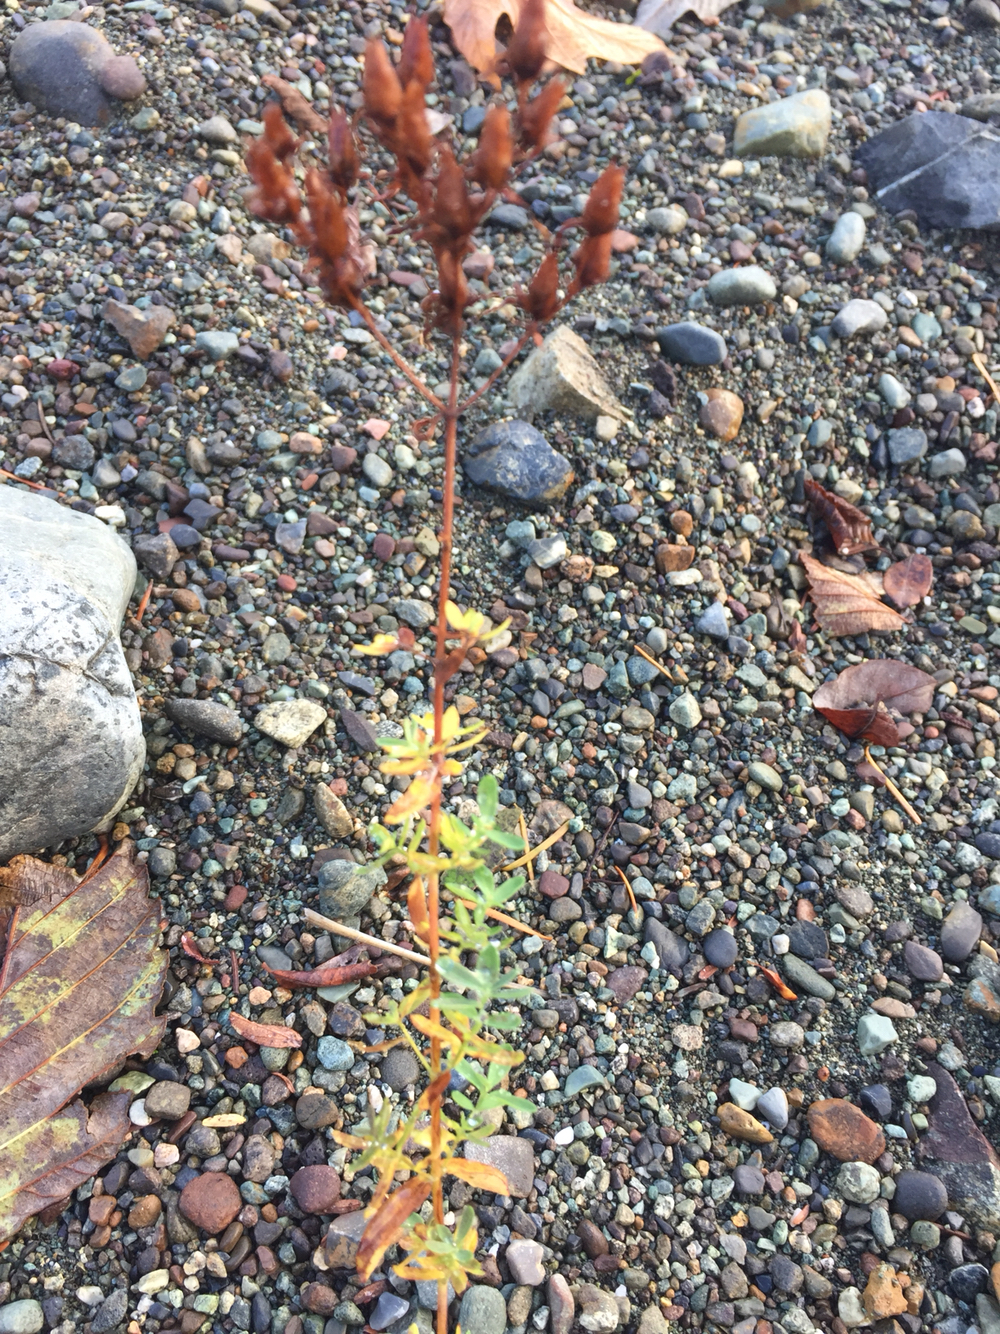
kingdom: Plantae
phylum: Tracheophyta
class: Magnoliopsida
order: Malpighiales
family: Hypericaceae
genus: Hypericum
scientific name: Hypericum perforatum
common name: Common st. johnswort
